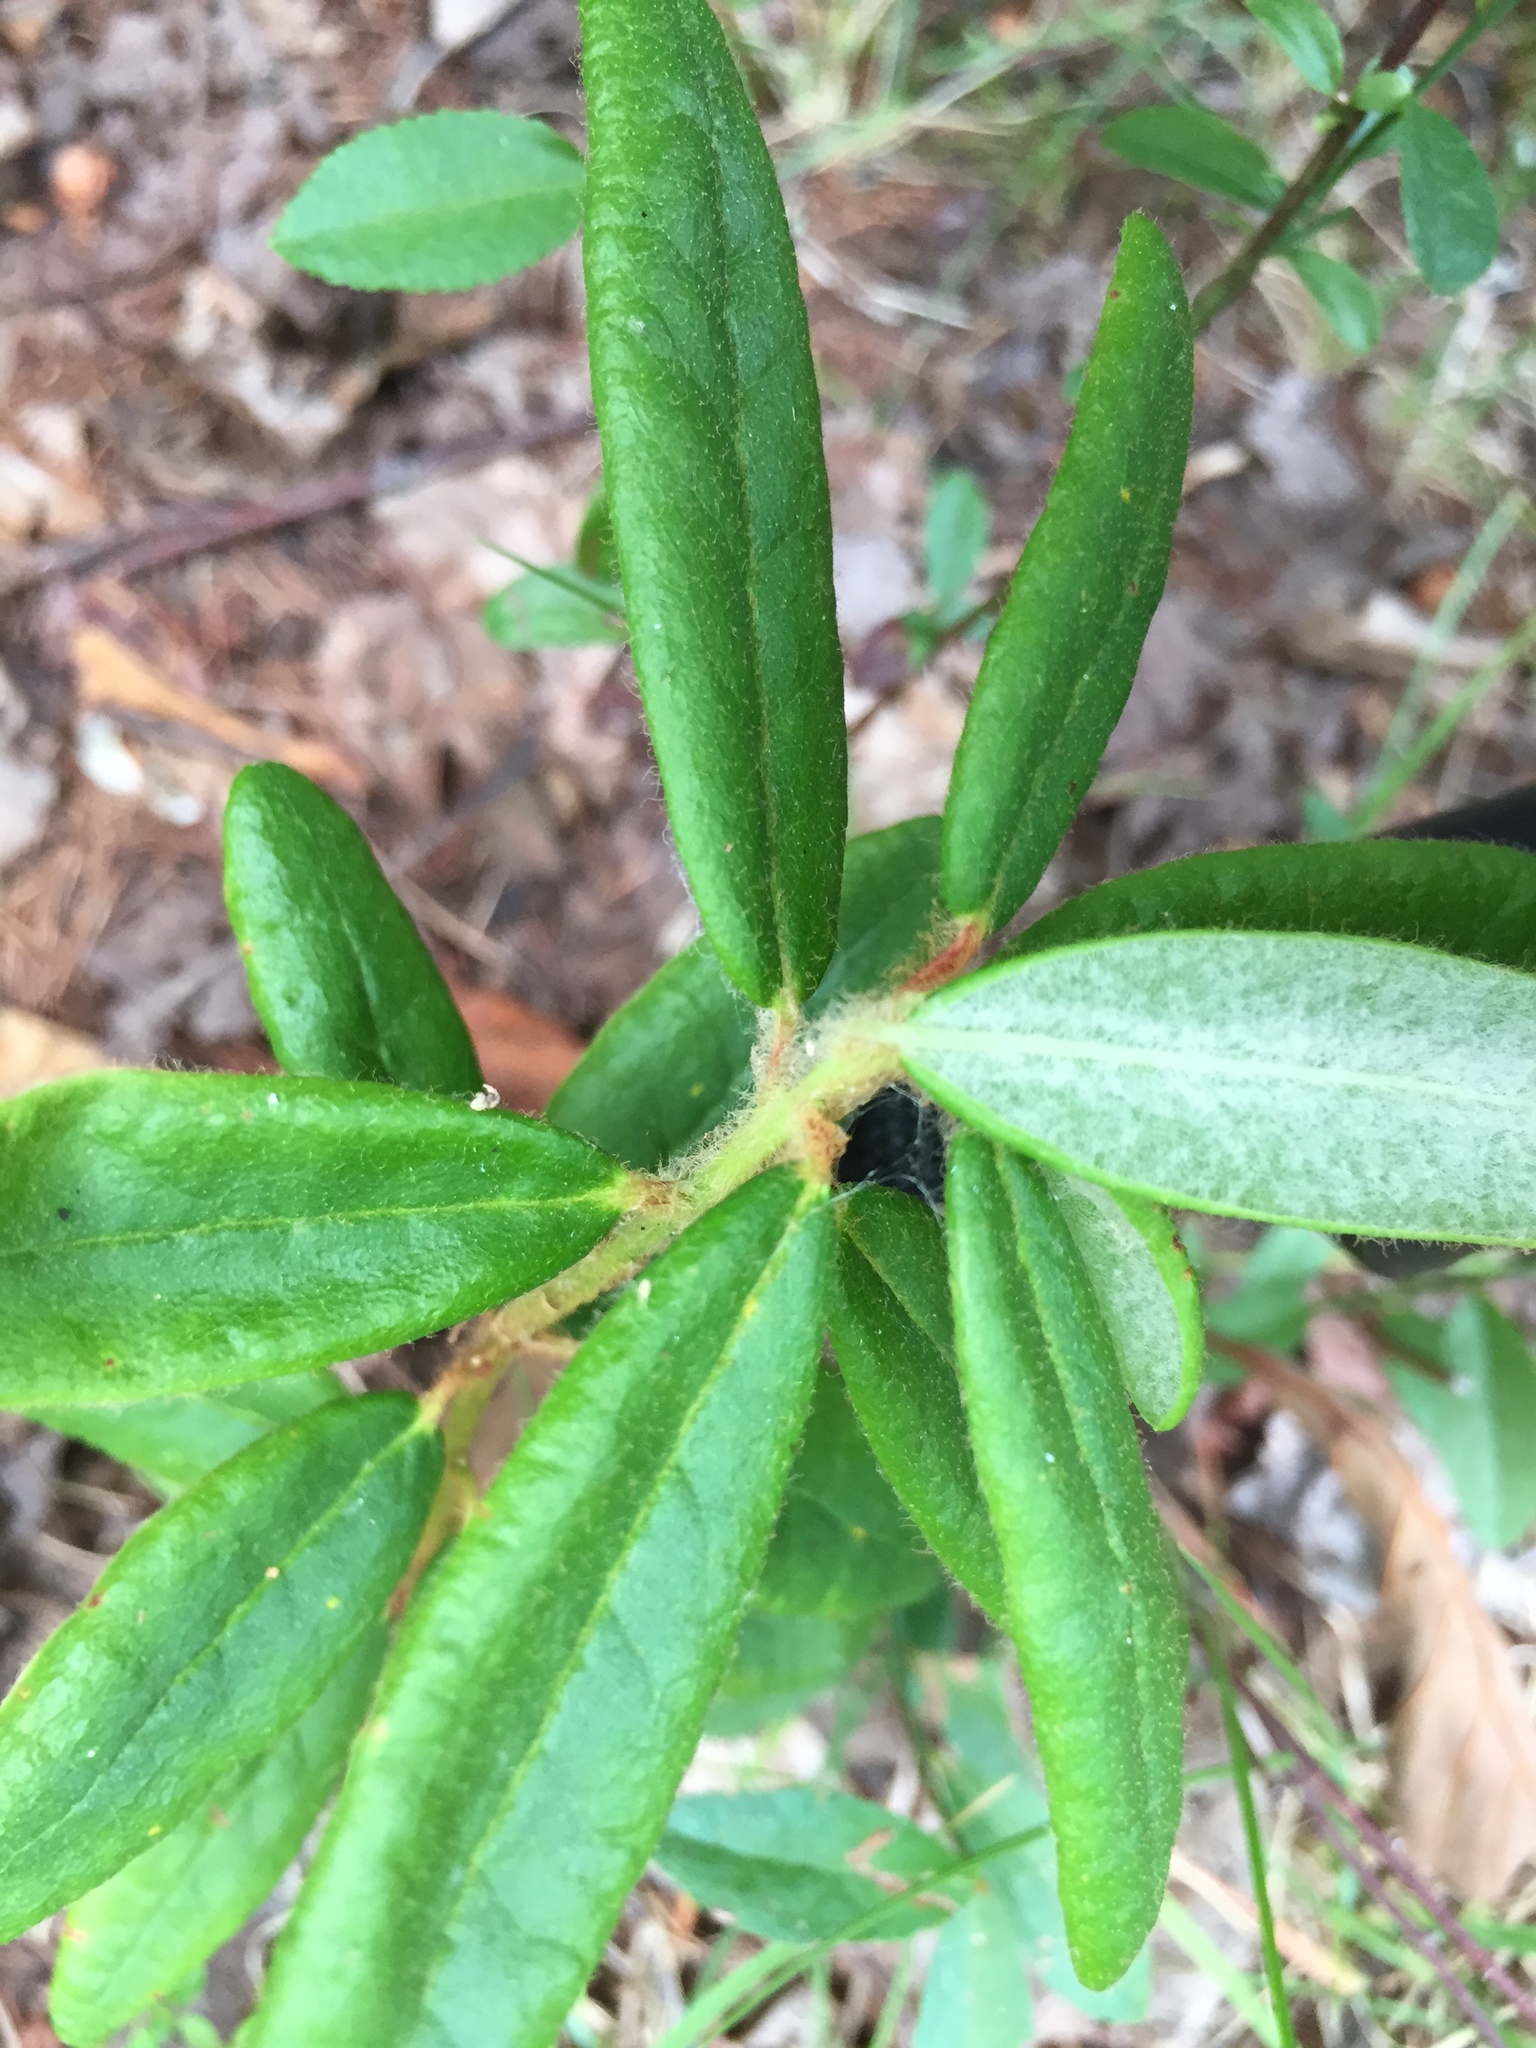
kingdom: Plantae
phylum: Tracheophyta
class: Magnoliopsida
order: Ericales
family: Ericaceae
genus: Rhododendron
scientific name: Rhododendron groenlandicum
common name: Bog labrador tea
